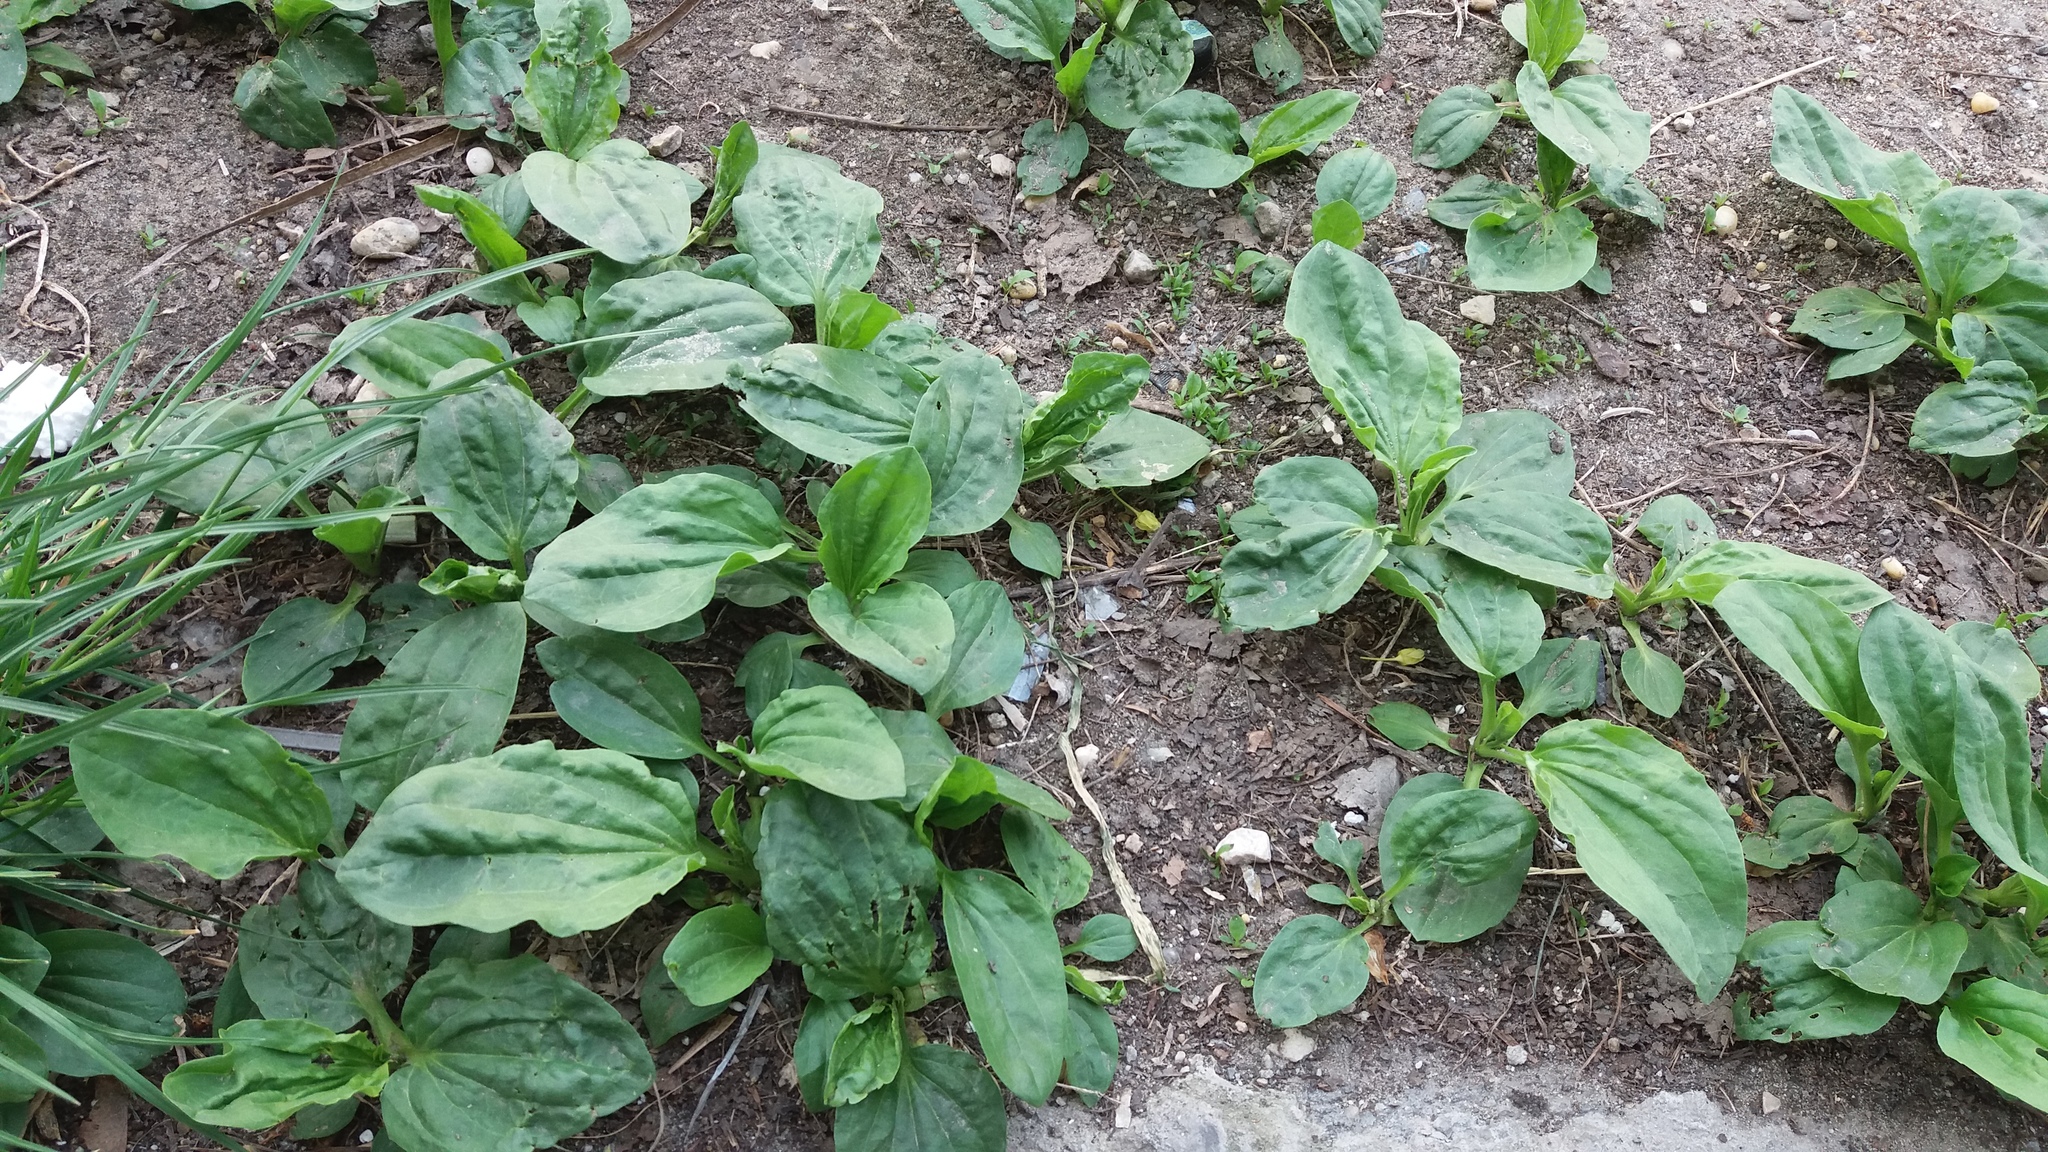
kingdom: Plantae
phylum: Tracheophyta
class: Magnoliopsida
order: Lamiales
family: Plantaginaceae
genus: Plantago
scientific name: Plantago major
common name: Common plantain
